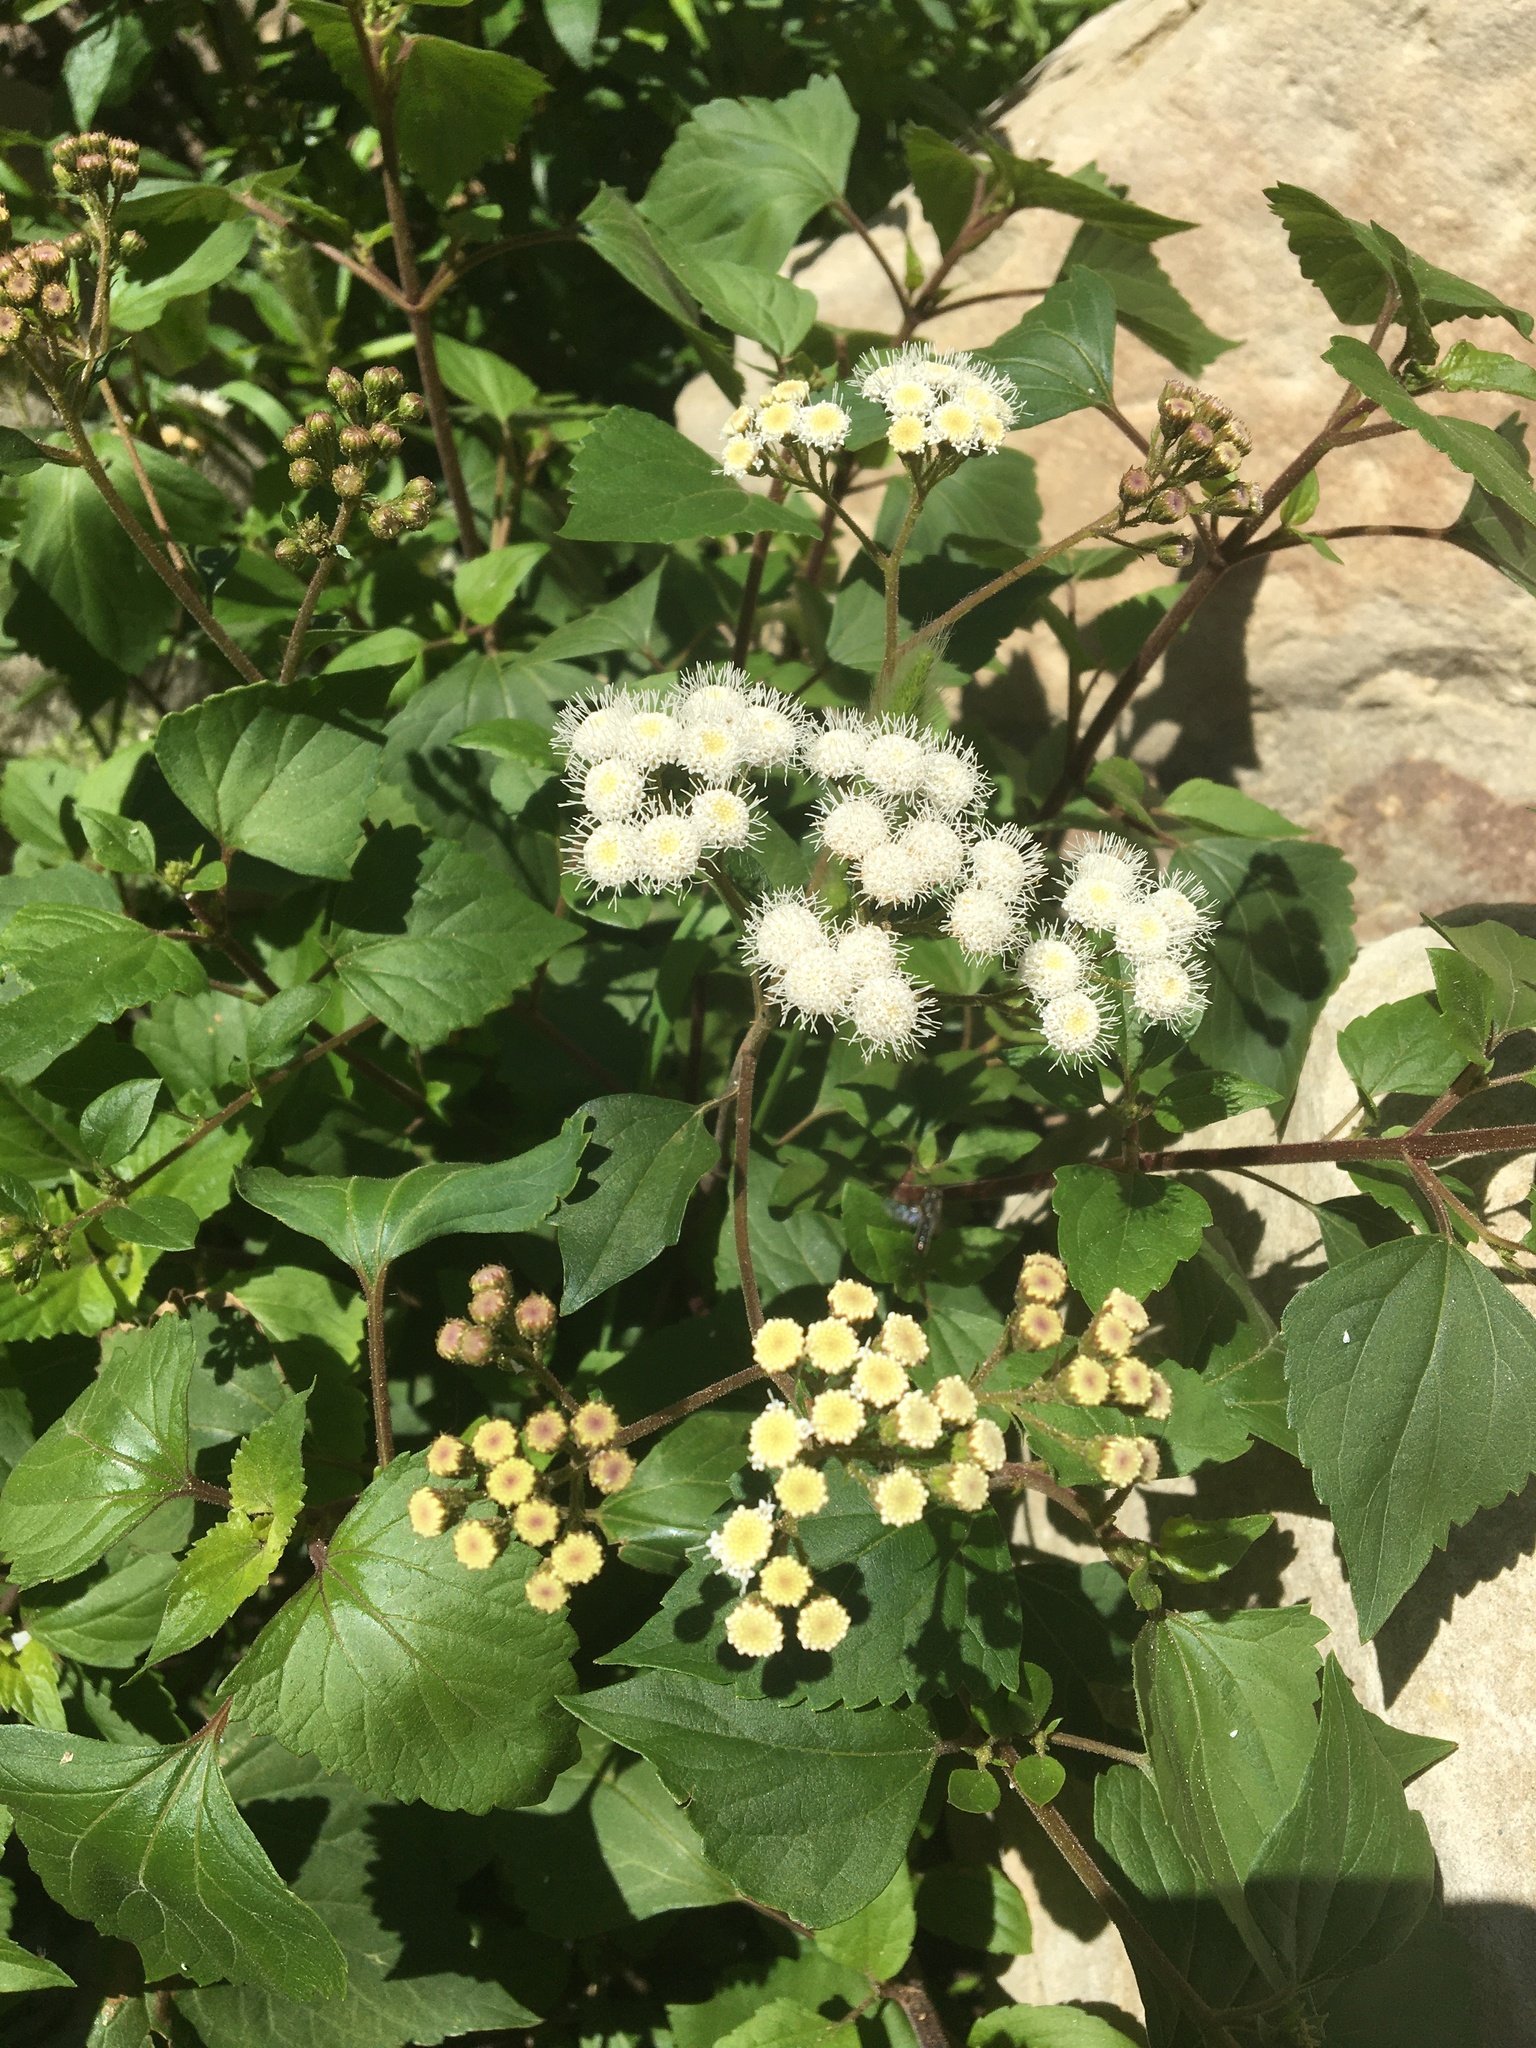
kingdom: Plantae
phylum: Tracheophyta
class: Magnoliopsida
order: Asterales
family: Asteraceae
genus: Ageratina
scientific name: Ageratina adenophora
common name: Sticky snakeroot
